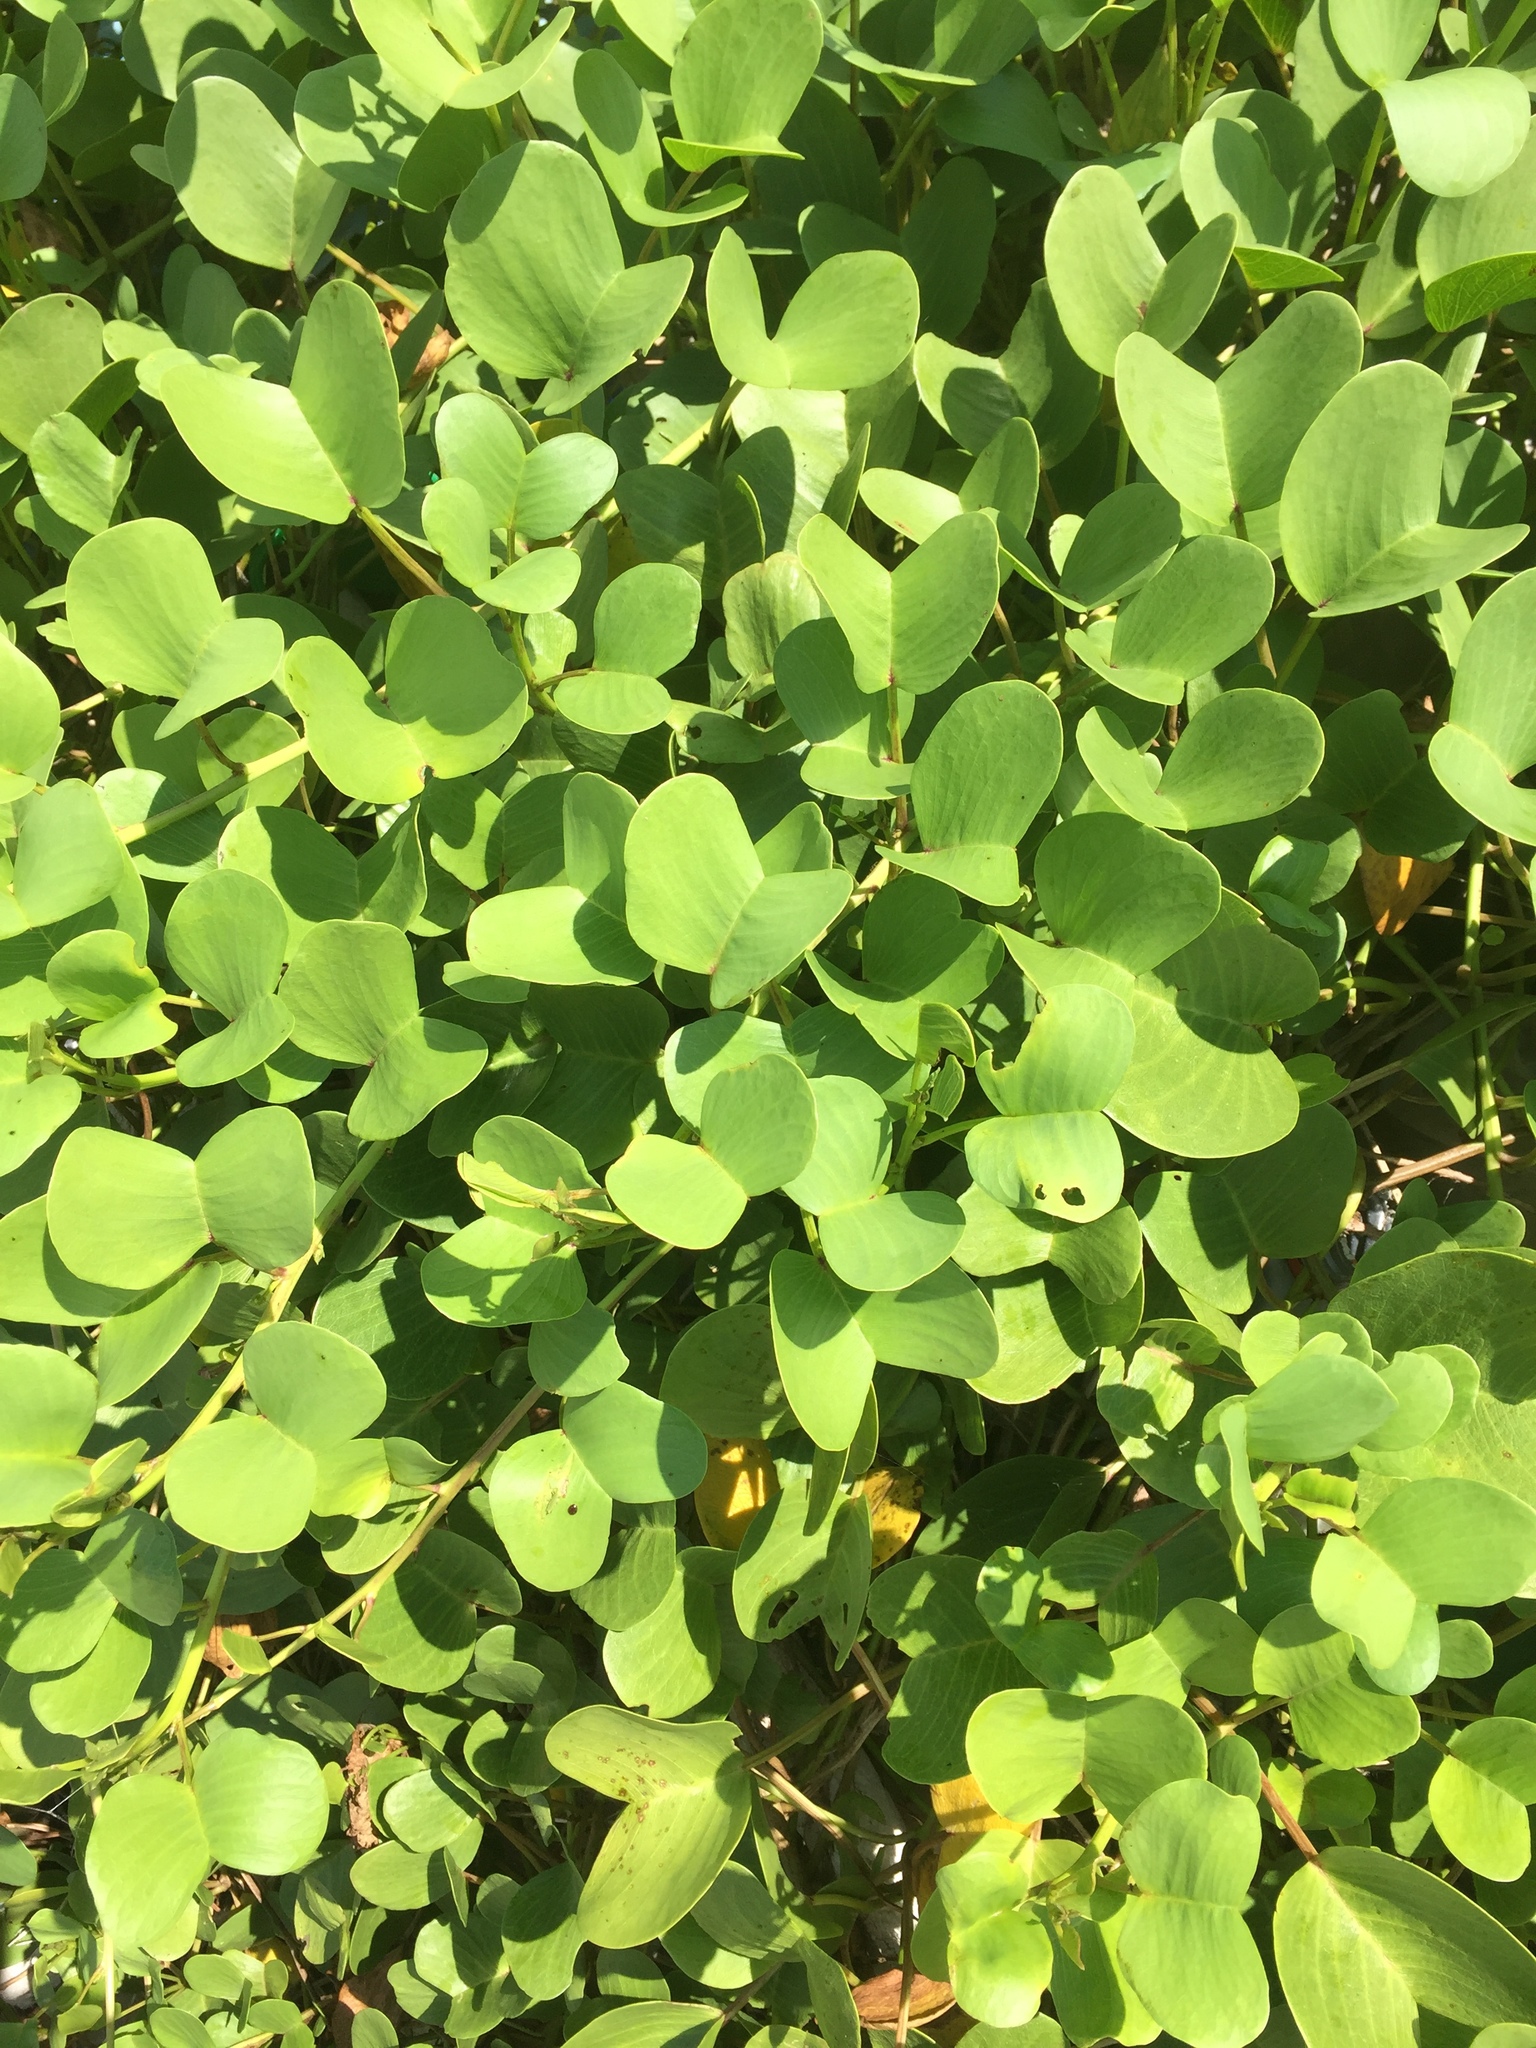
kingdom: Plantae
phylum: Tracheophyta
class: Magnoliopsida
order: Solanales
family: Convolvulaceae
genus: Ipomoea
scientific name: Ipomoea pes-caprae
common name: Beach morning glory
